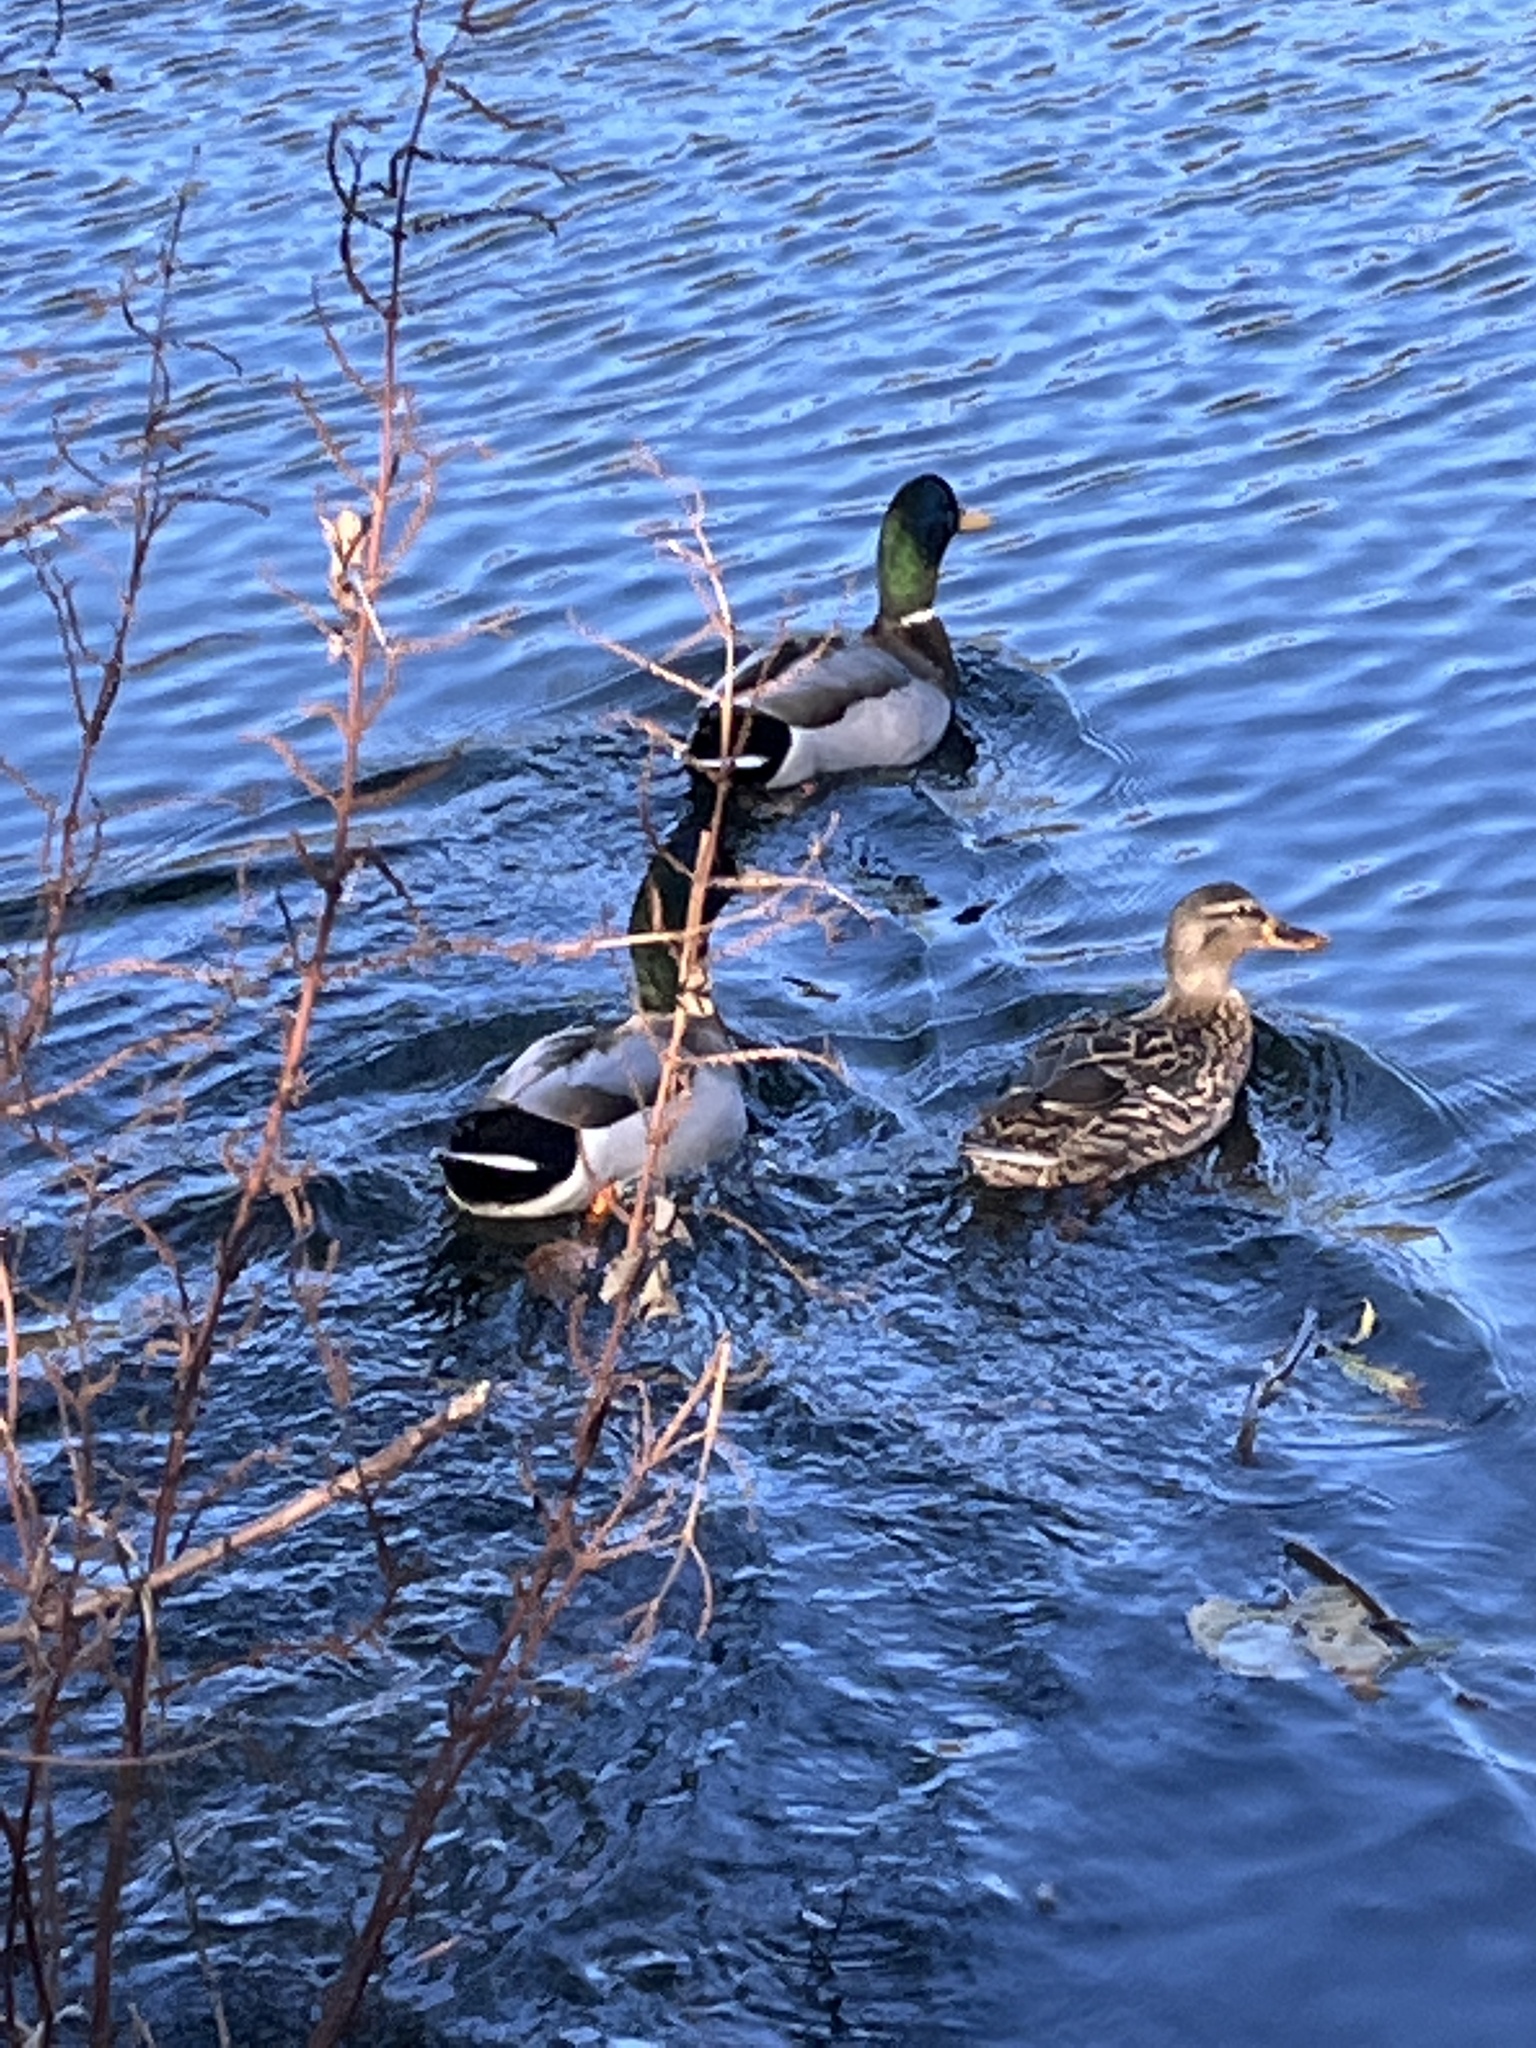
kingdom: Animalia
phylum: Chordata
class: Aves
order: Anseriformes
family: Anatidae
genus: Anas
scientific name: Anas platyrhynchos
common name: Mallard
